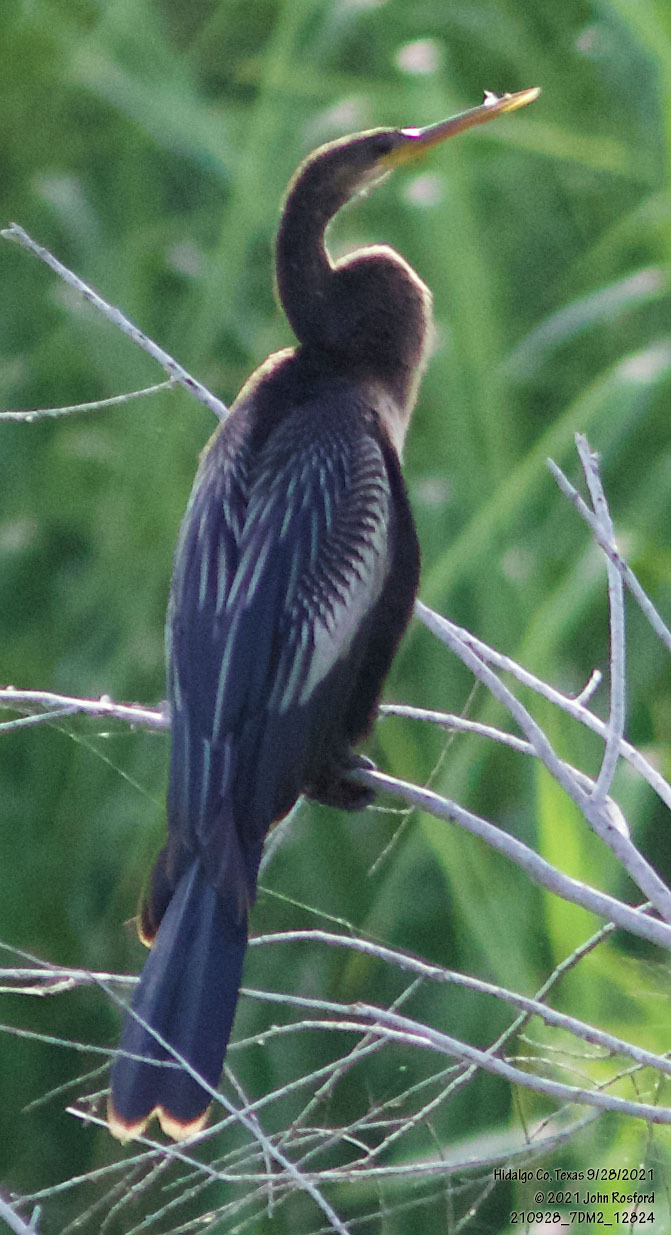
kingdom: Animalia
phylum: Chordata
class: Aves
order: Suliformes
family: Anhingidae
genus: Anhinga
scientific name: Anhinga anhinga
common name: Anhinga
